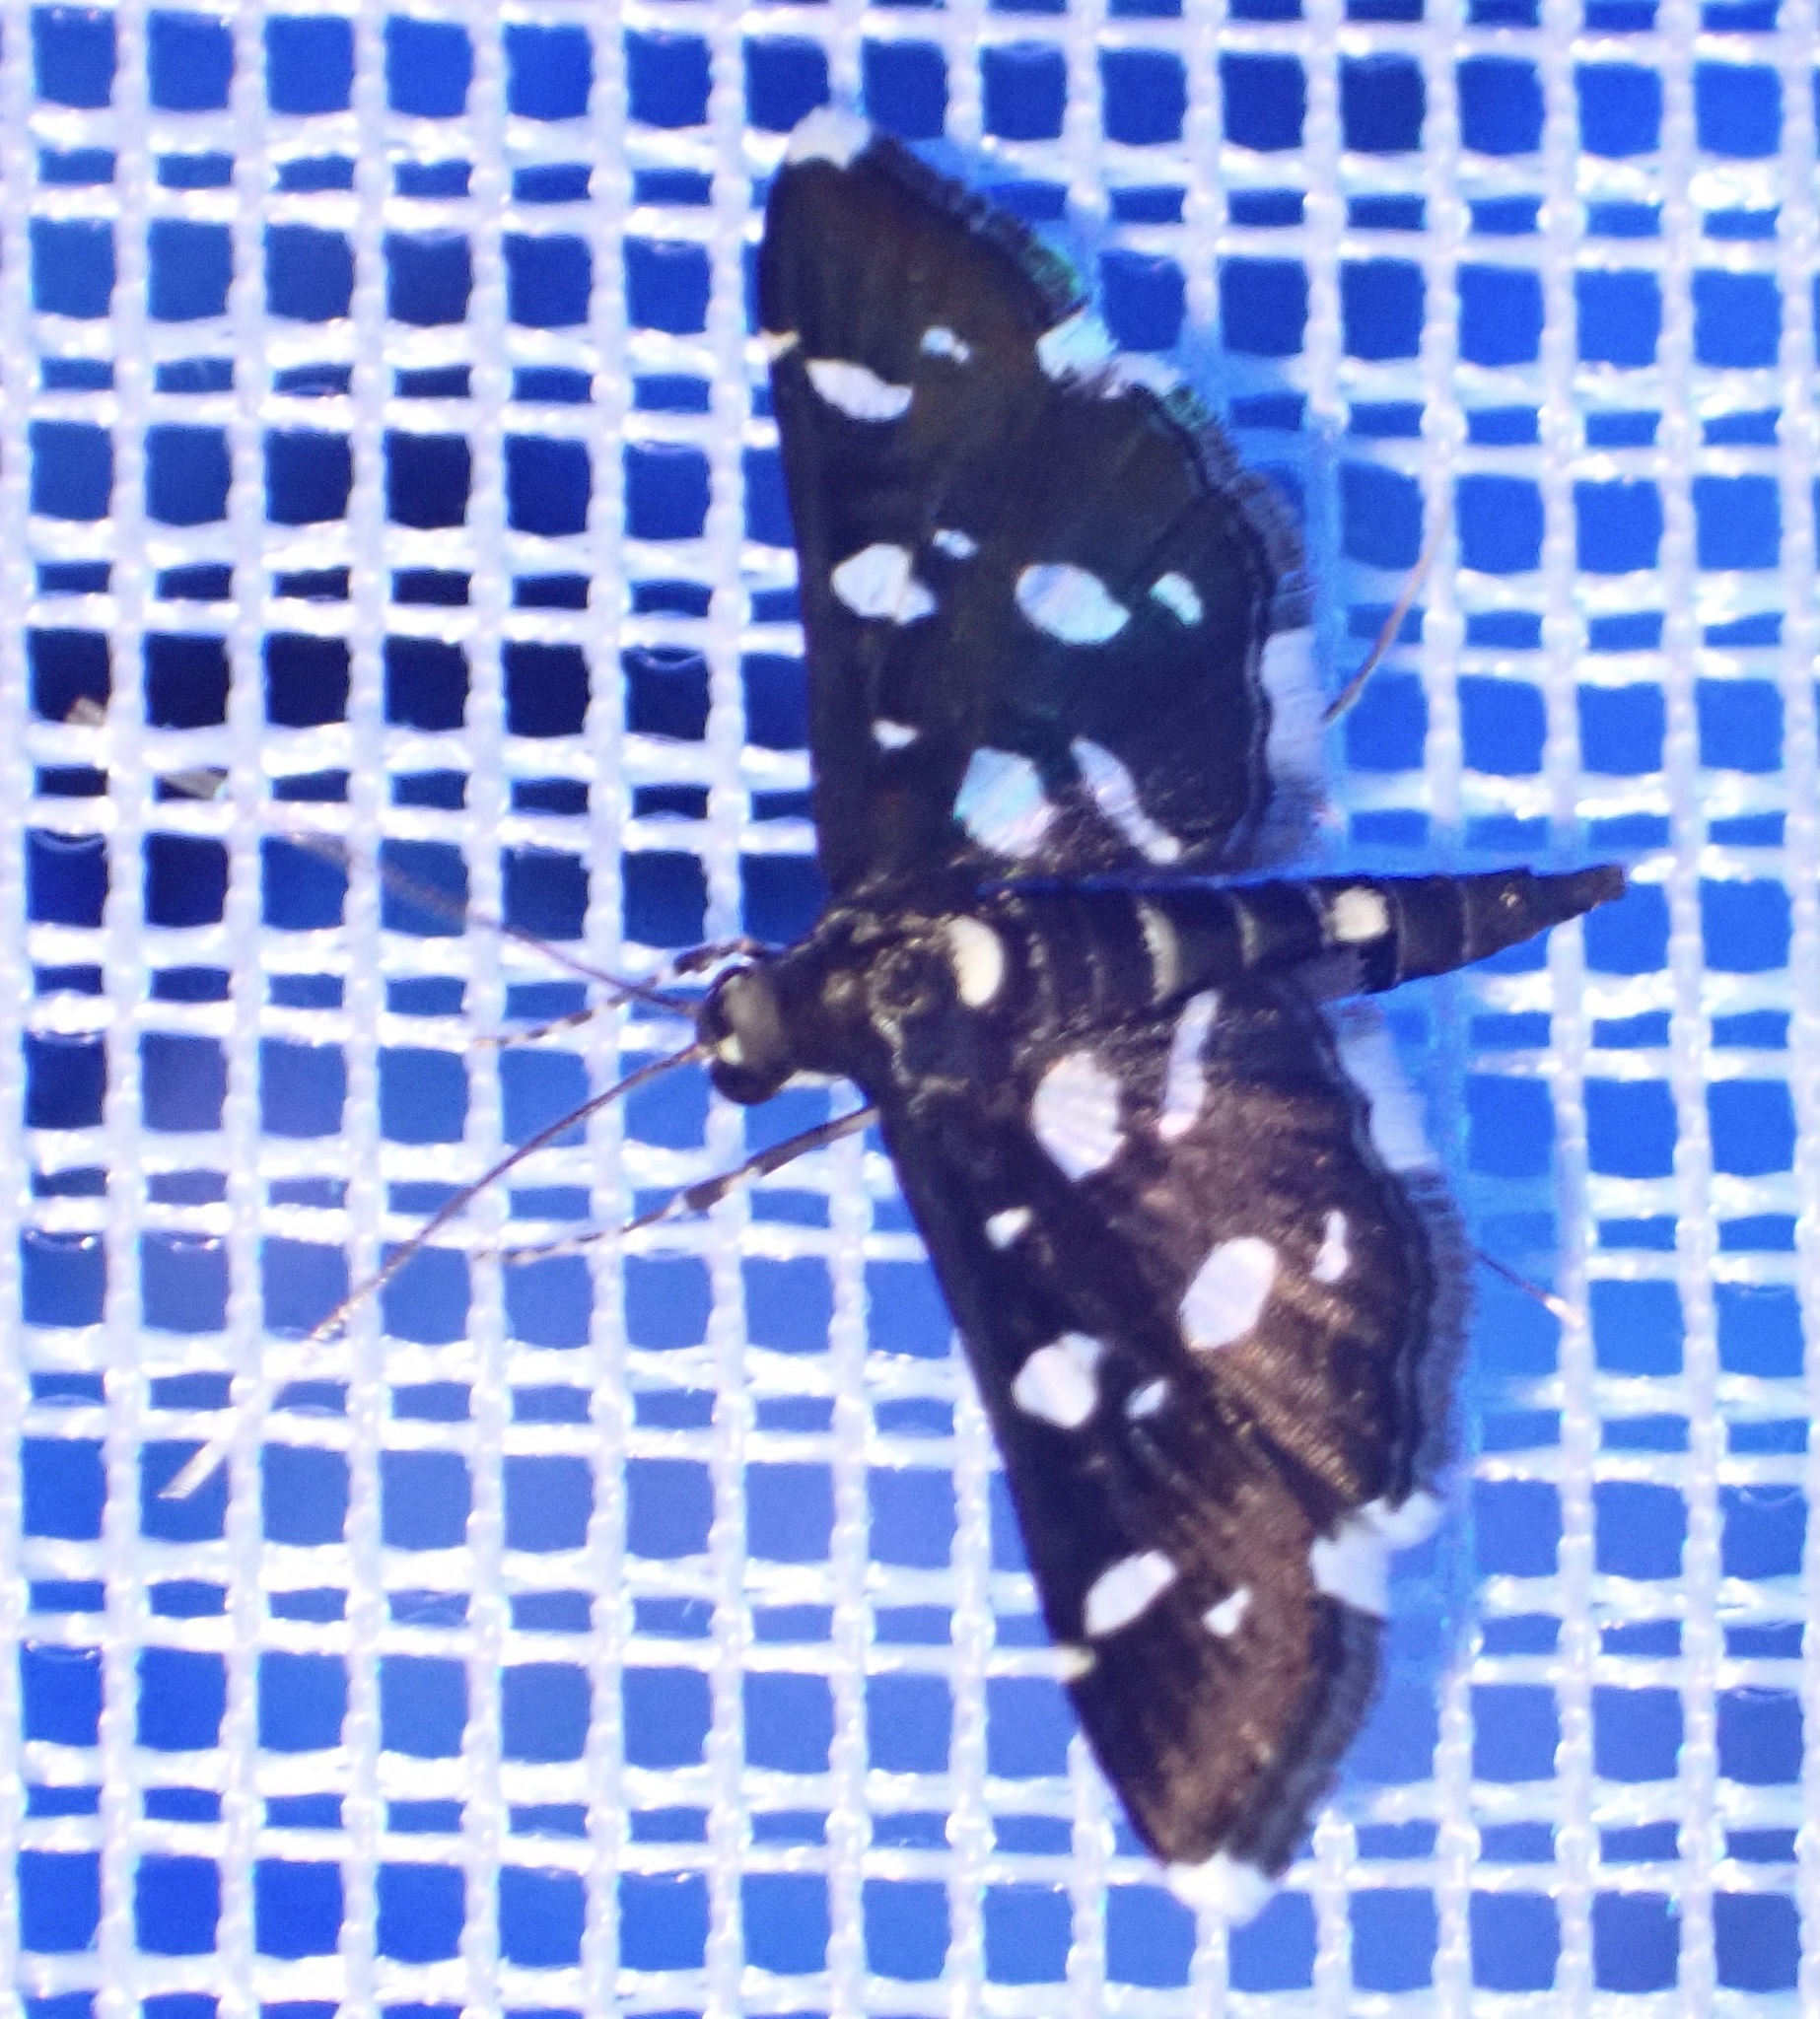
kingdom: Animalia
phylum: Arthropoda
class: Insecta
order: Lepidoptera
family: Crambidae
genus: Bocchoris
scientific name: Bocchoris inspersalis
